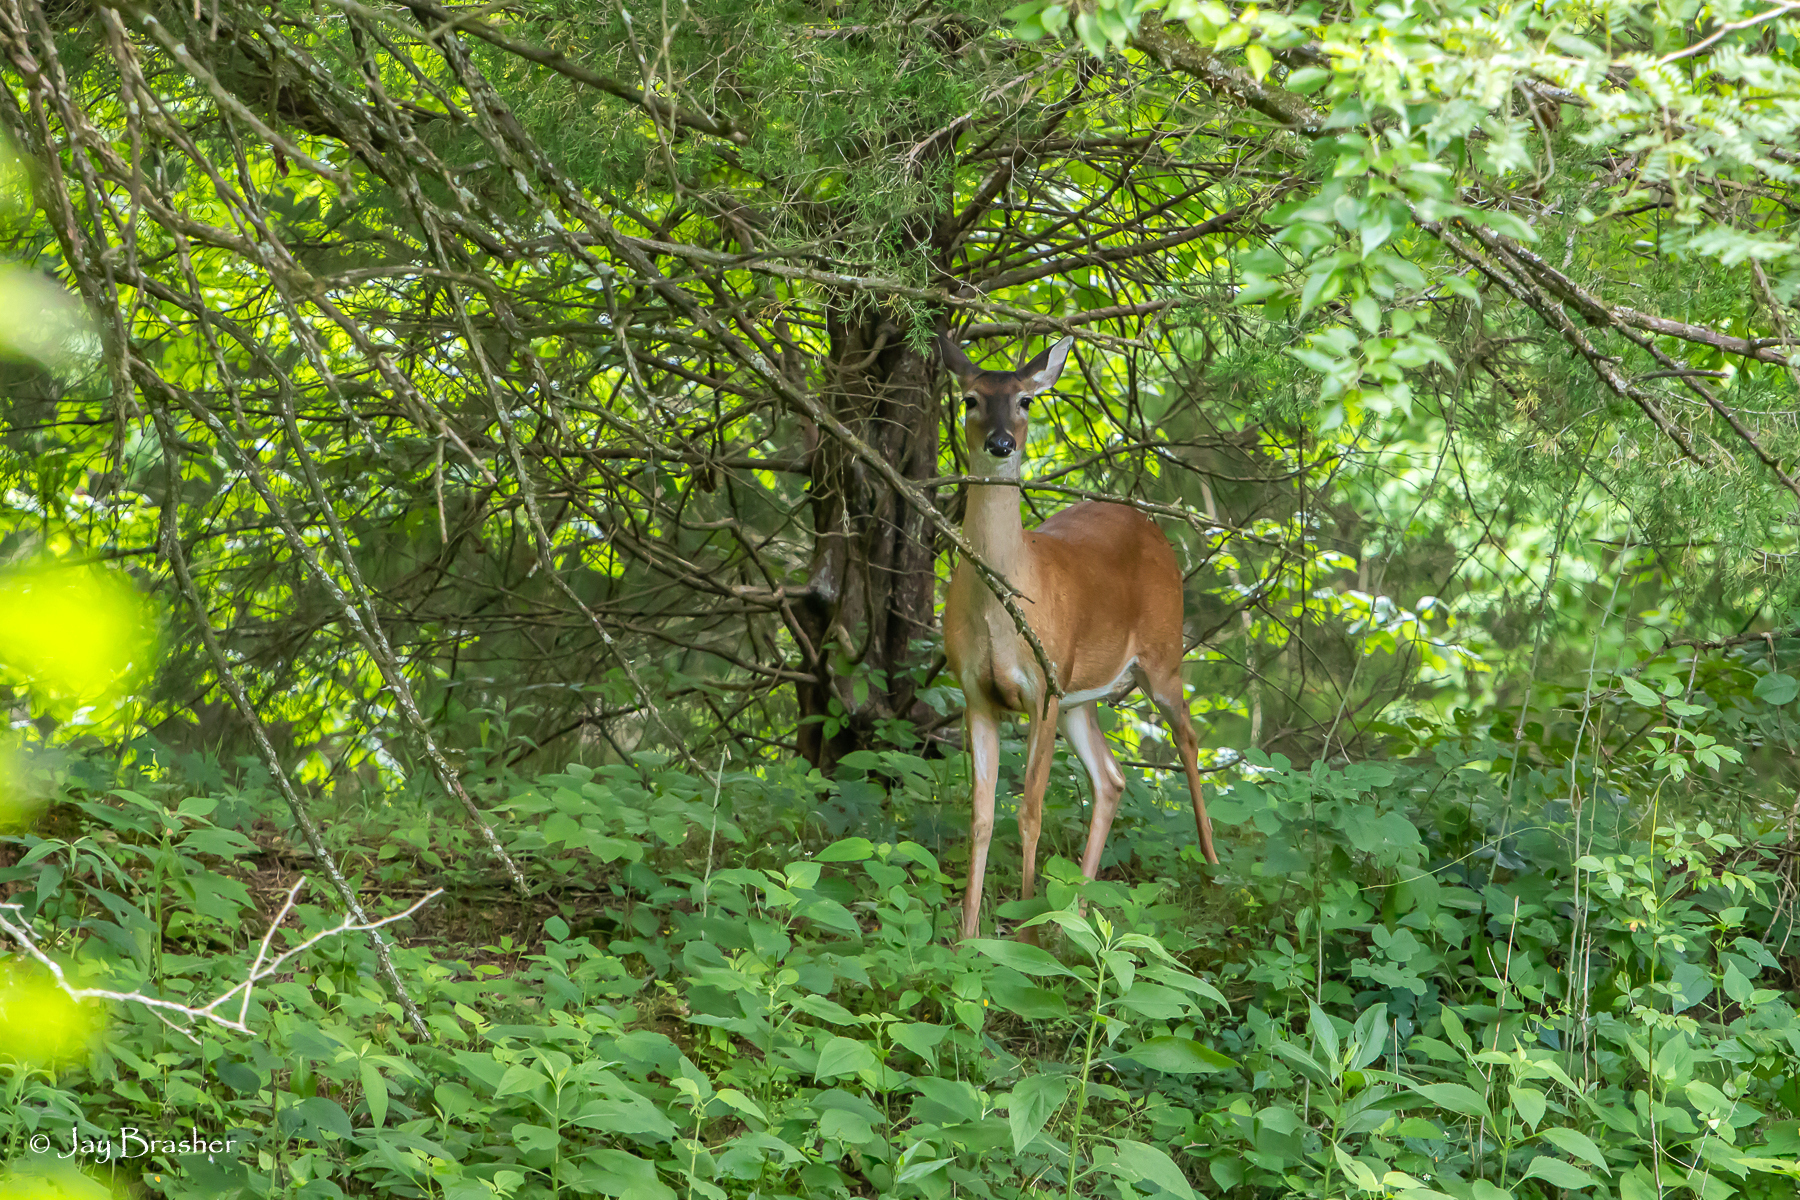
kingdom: Animalia
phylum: Chordata
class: Mammalia
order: Artiodactyla
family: Cervidae
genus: Odocoileus
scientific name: Odocoileus virginianus
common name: White-tailed deer
